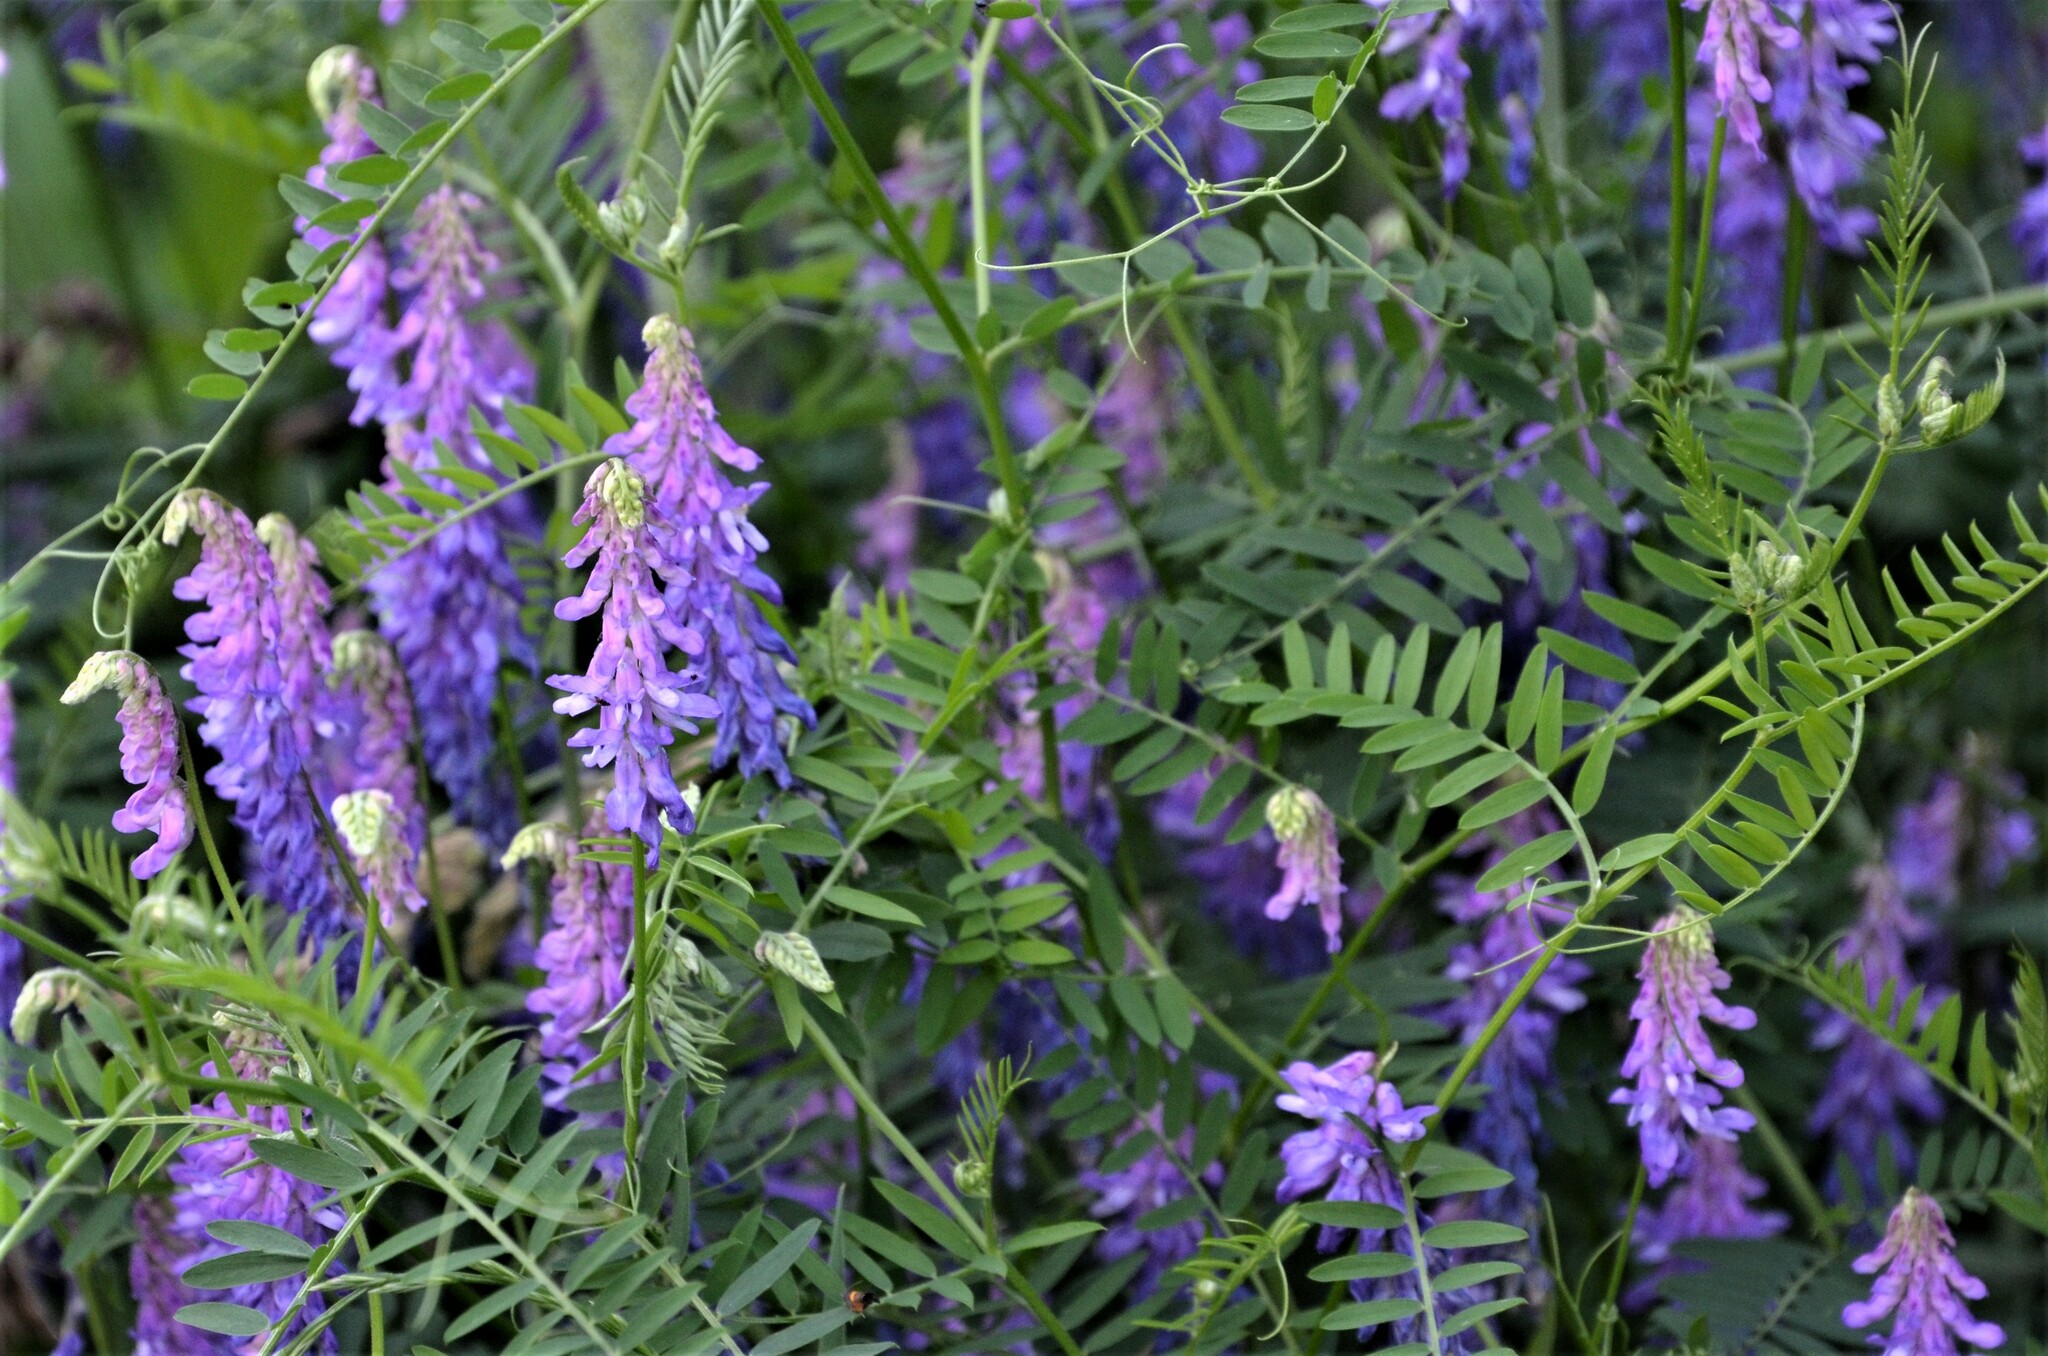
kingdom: Plantae
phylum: Tracheophyta
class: Magnoliopsida
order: Fabales
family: Fabaceae
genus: Vicia
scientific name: Vicia cracca
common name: Bird vetch
